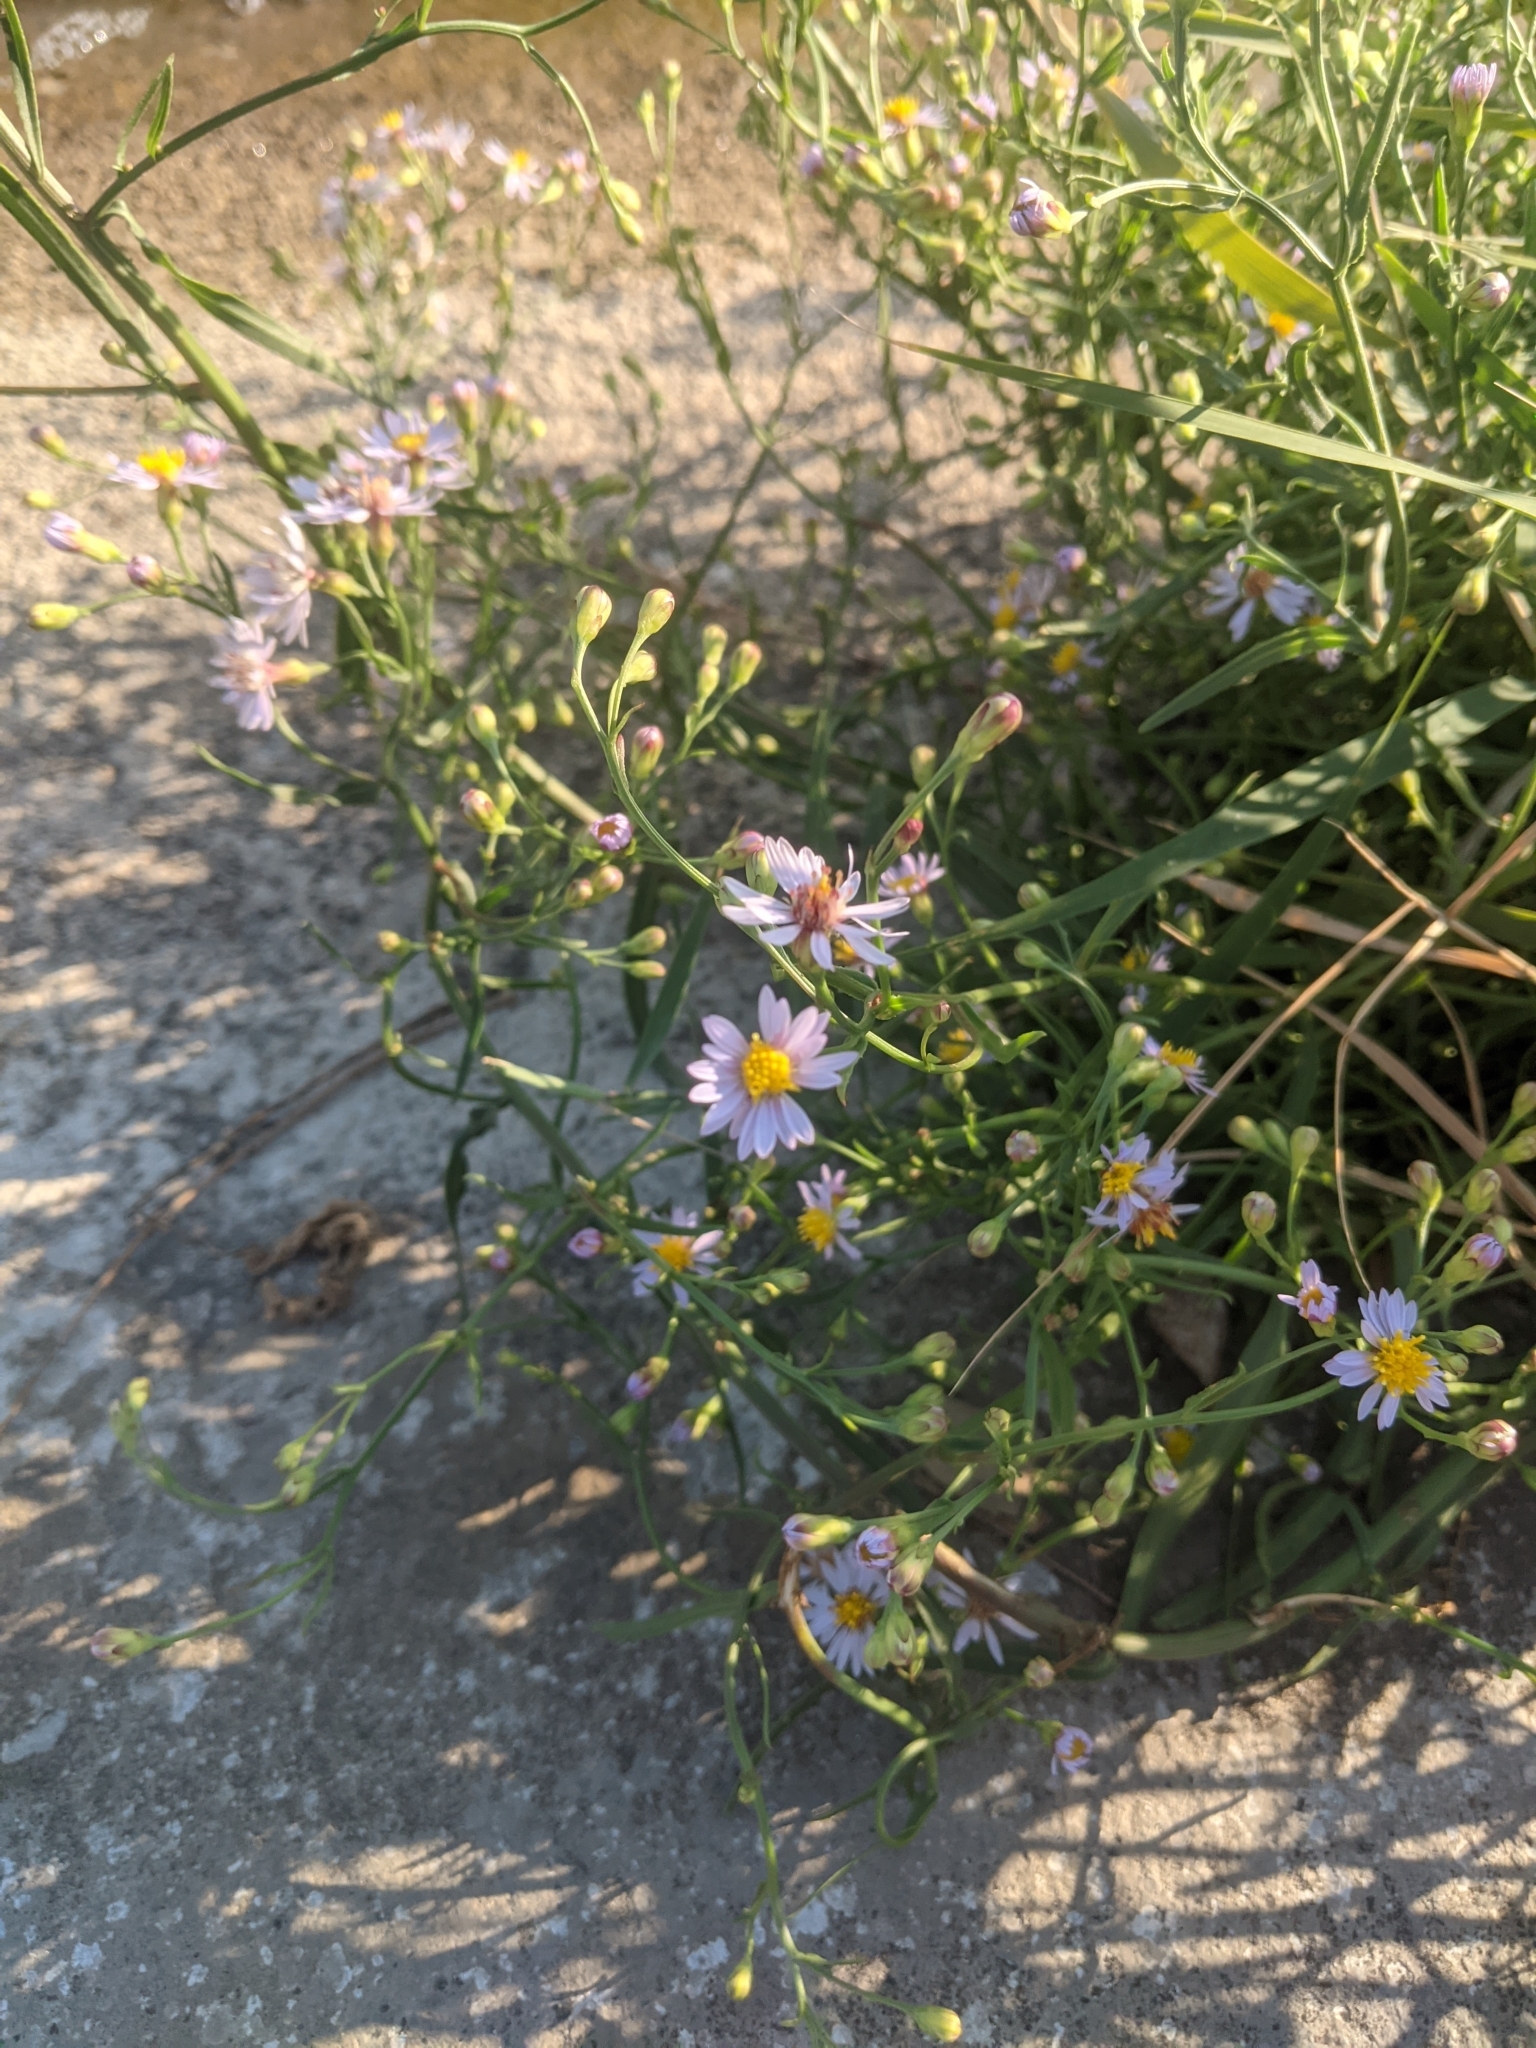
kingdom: Plantae
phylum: Tracheophyta
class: Magnoliopsida
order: Asterales
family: Asteraceae
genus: Tripolium
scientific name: Tripolium pannonicum
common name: Sea aster
